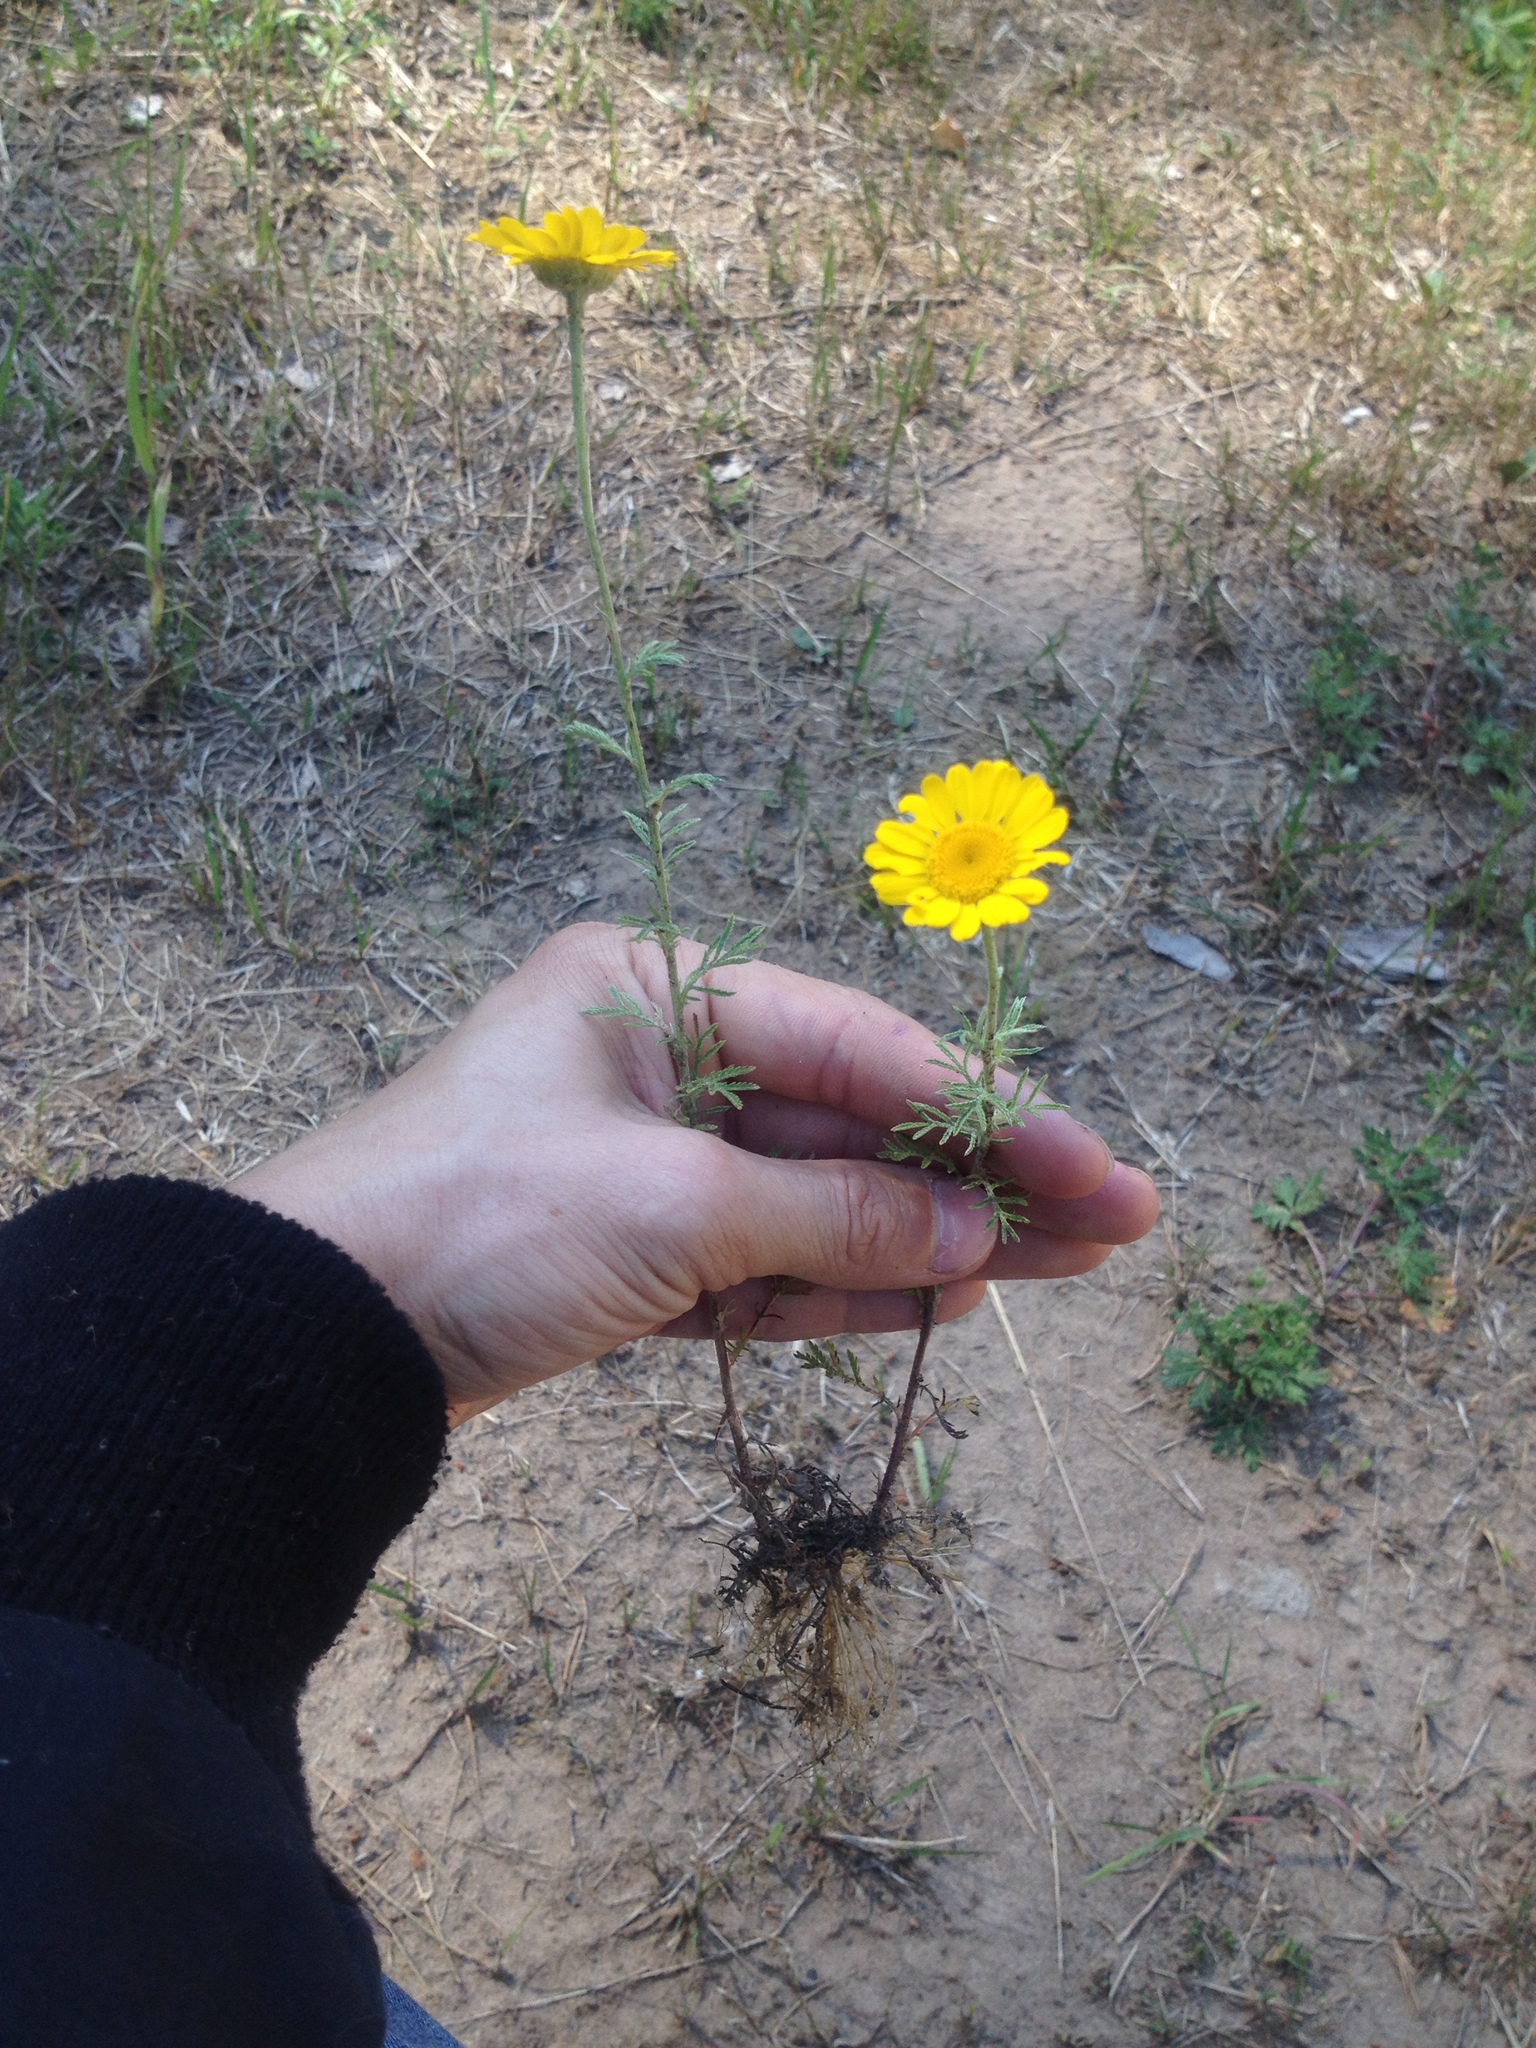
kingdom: Plantae
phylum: Tracheophyta
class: Magnoliopsida
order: Asterales
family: Asteraceae
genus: Cota
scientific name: Cota tinctoria
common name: Golden chamomile
